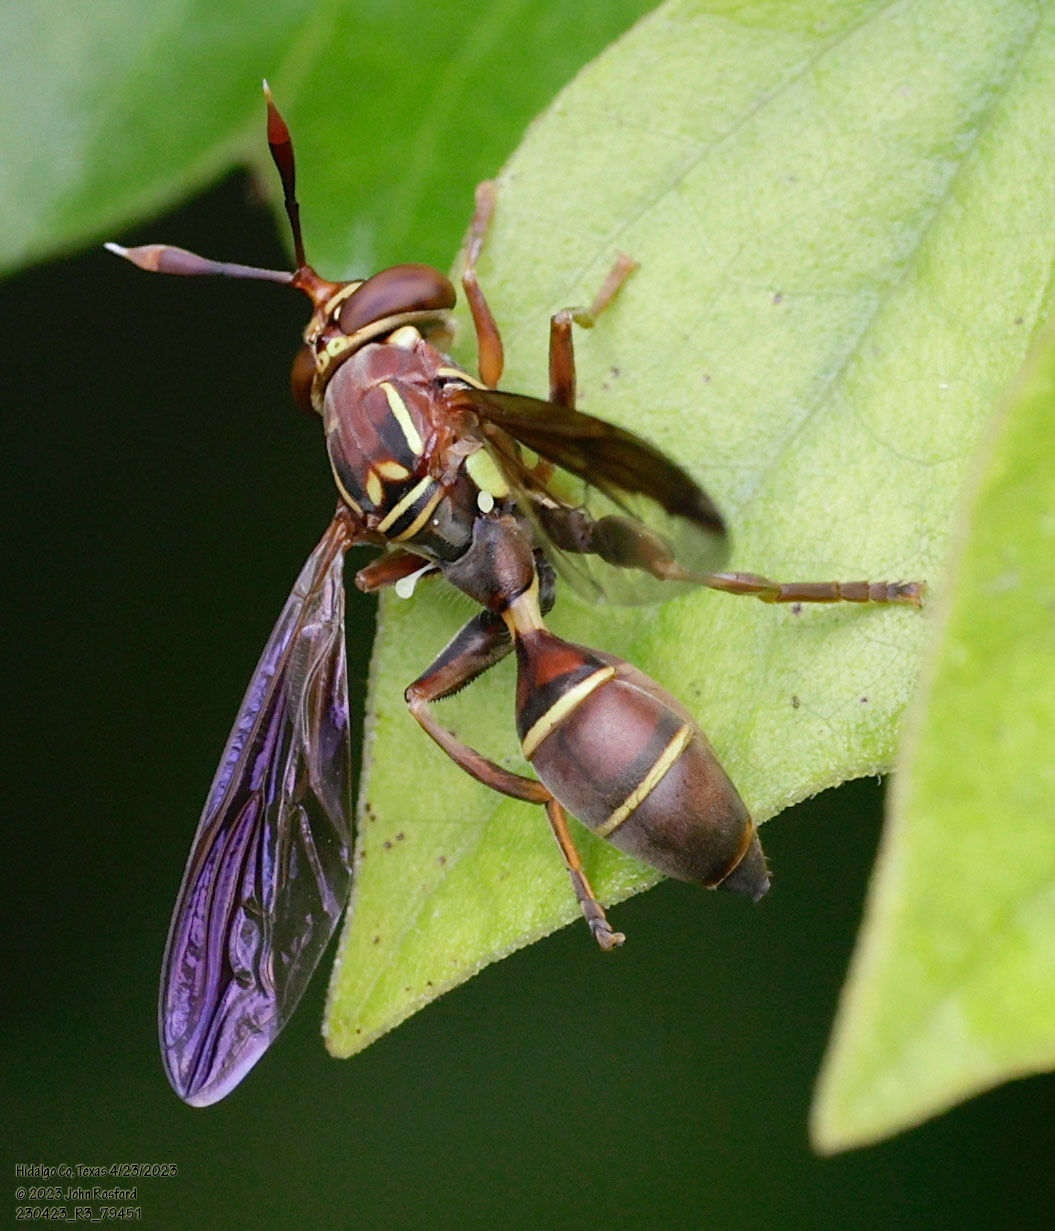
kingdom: Animalia
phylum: Arthropoda
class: Insecta
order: Diptera
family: Syrphidae
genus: Polybiomyia
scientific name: Polybiomyia schnablei
